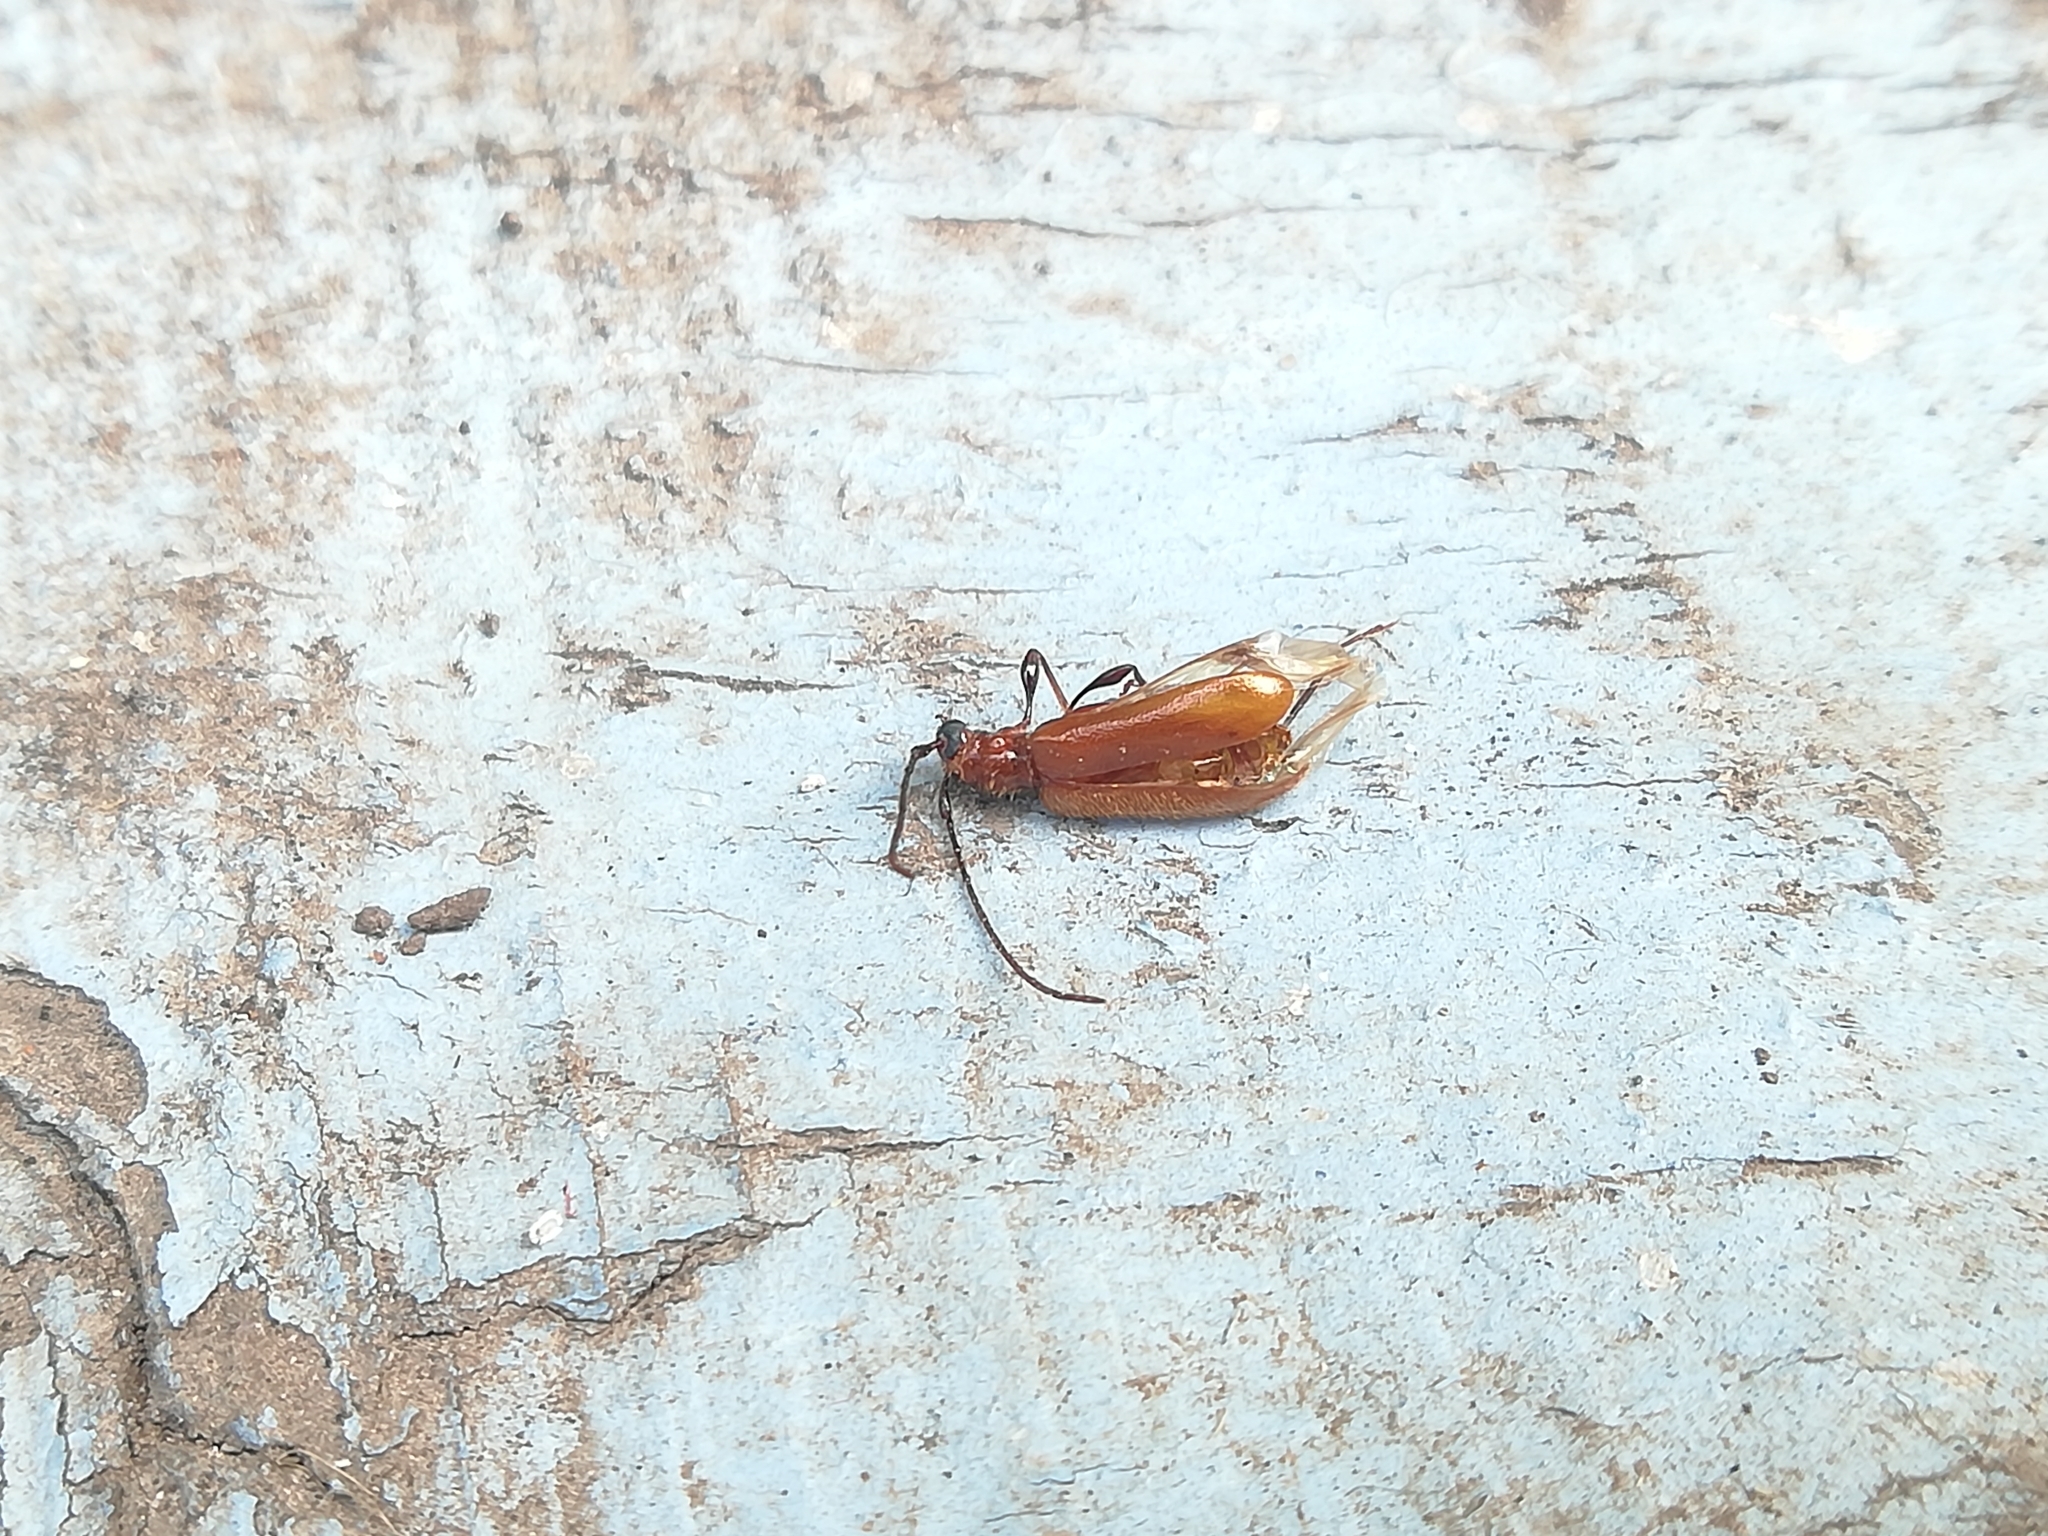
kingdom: Animalia
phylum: Arthropoda
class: Insecta
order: Coleoptera
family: Cerambycidae
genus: Obrium
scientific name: Obrium cantharinum
